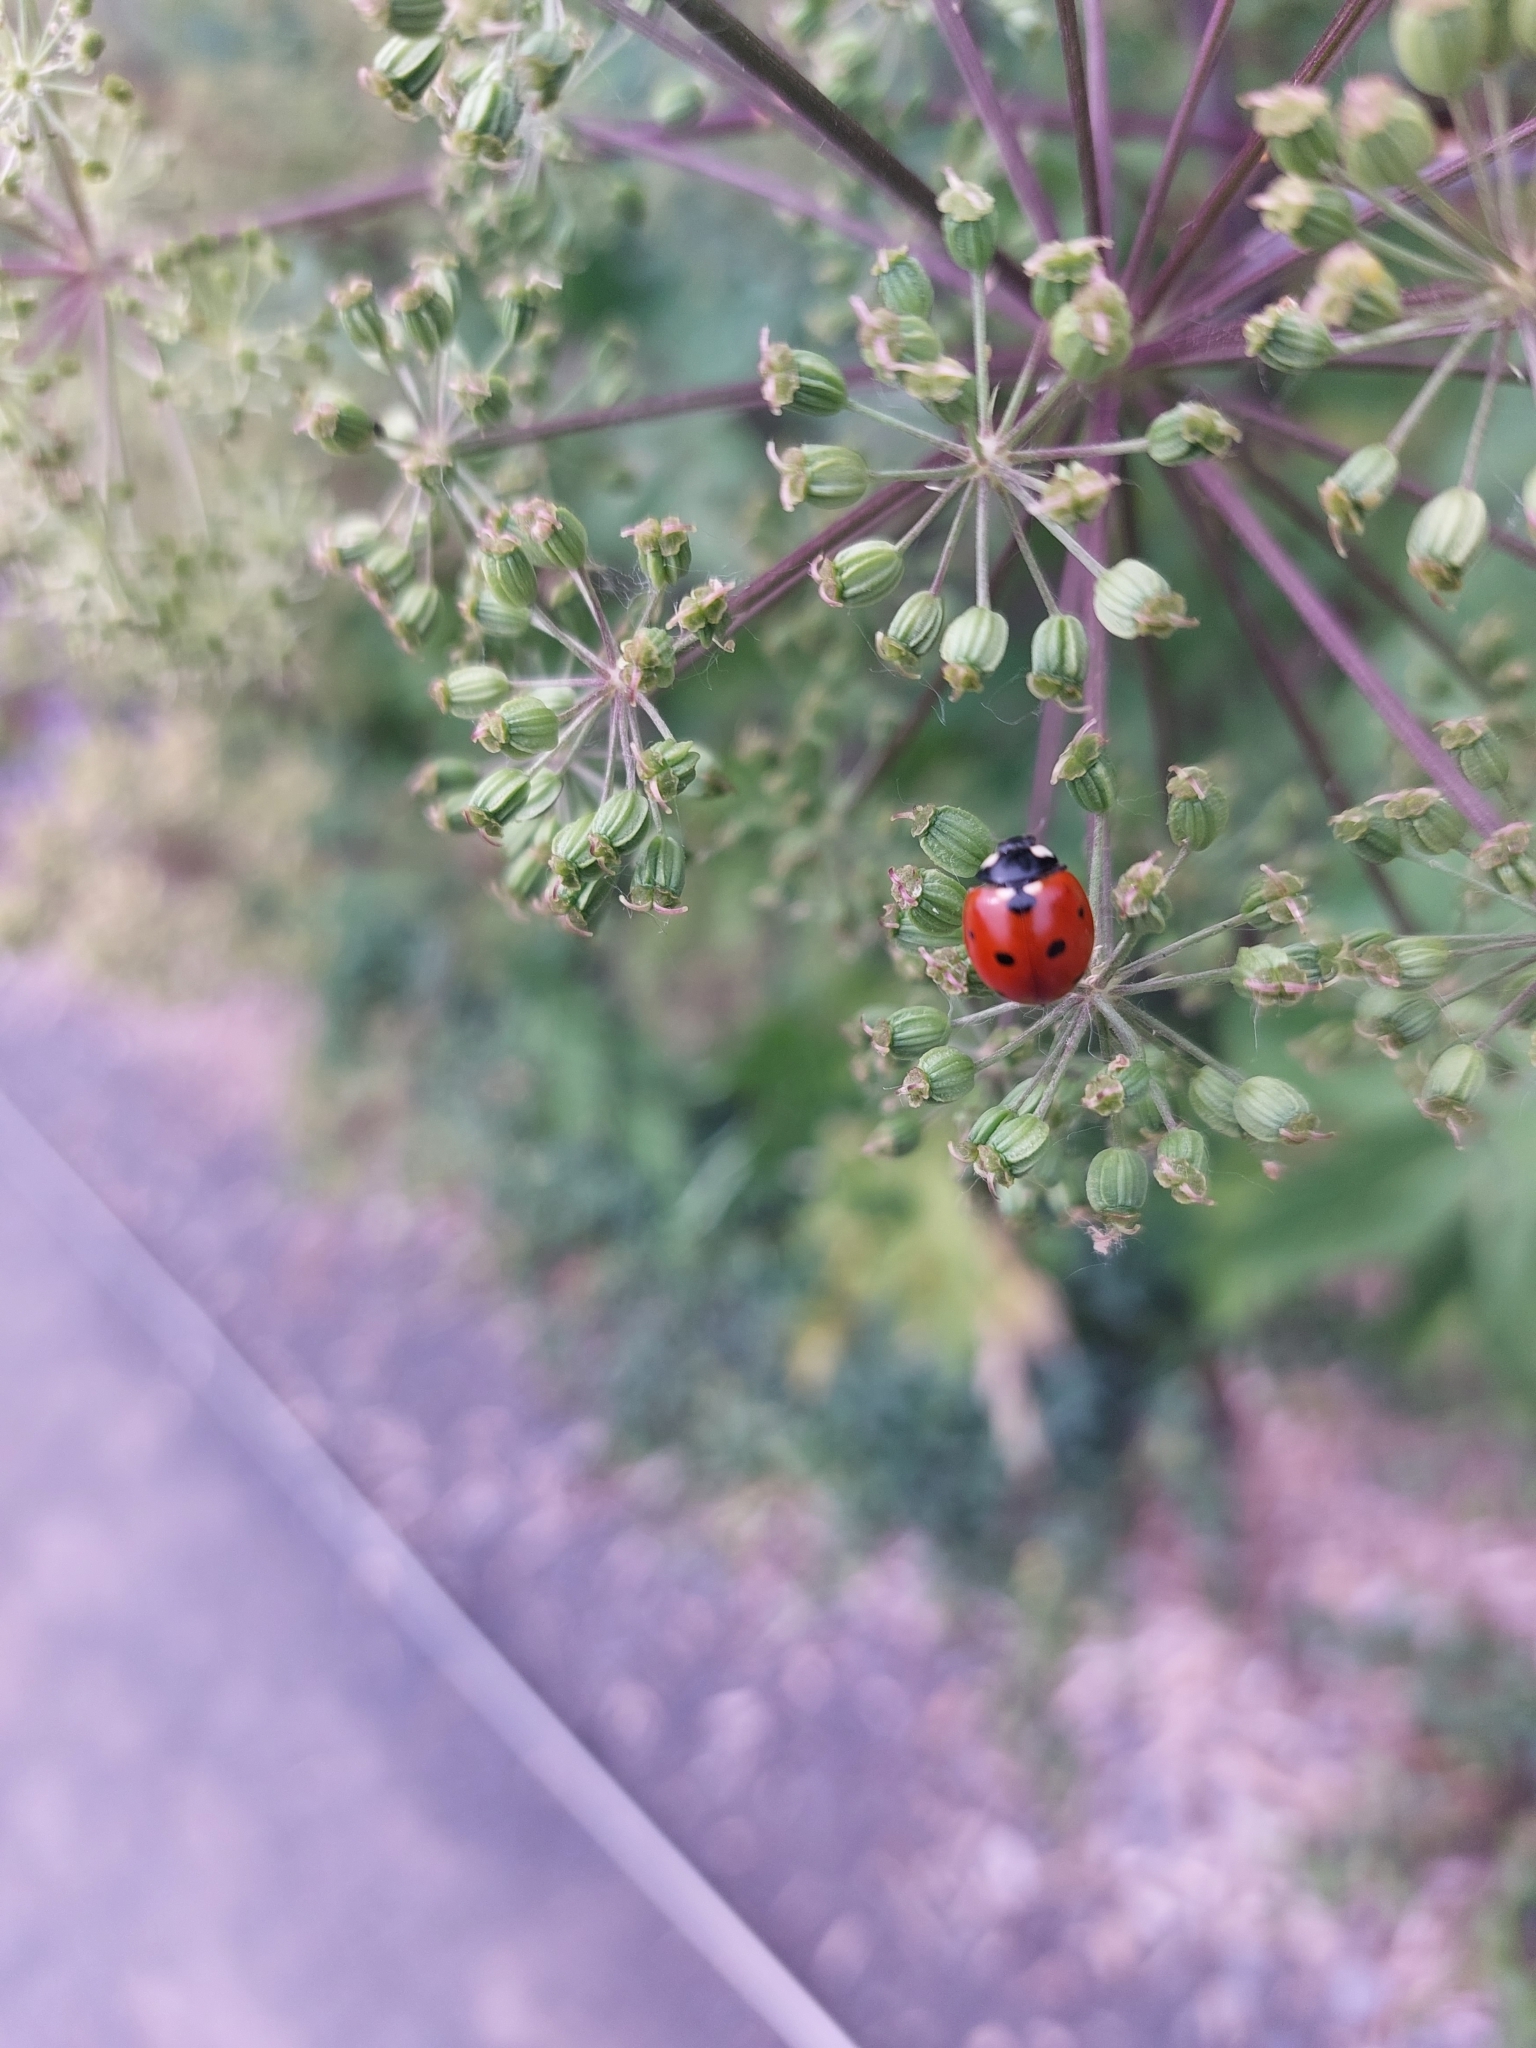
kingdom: Animalia
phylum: Arthropoda
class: Insecta
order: Coleoptera
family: Coccinellidae
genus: Coccinella
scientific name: Coccinella septempunctata
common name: Sevenspotted lady beetle
